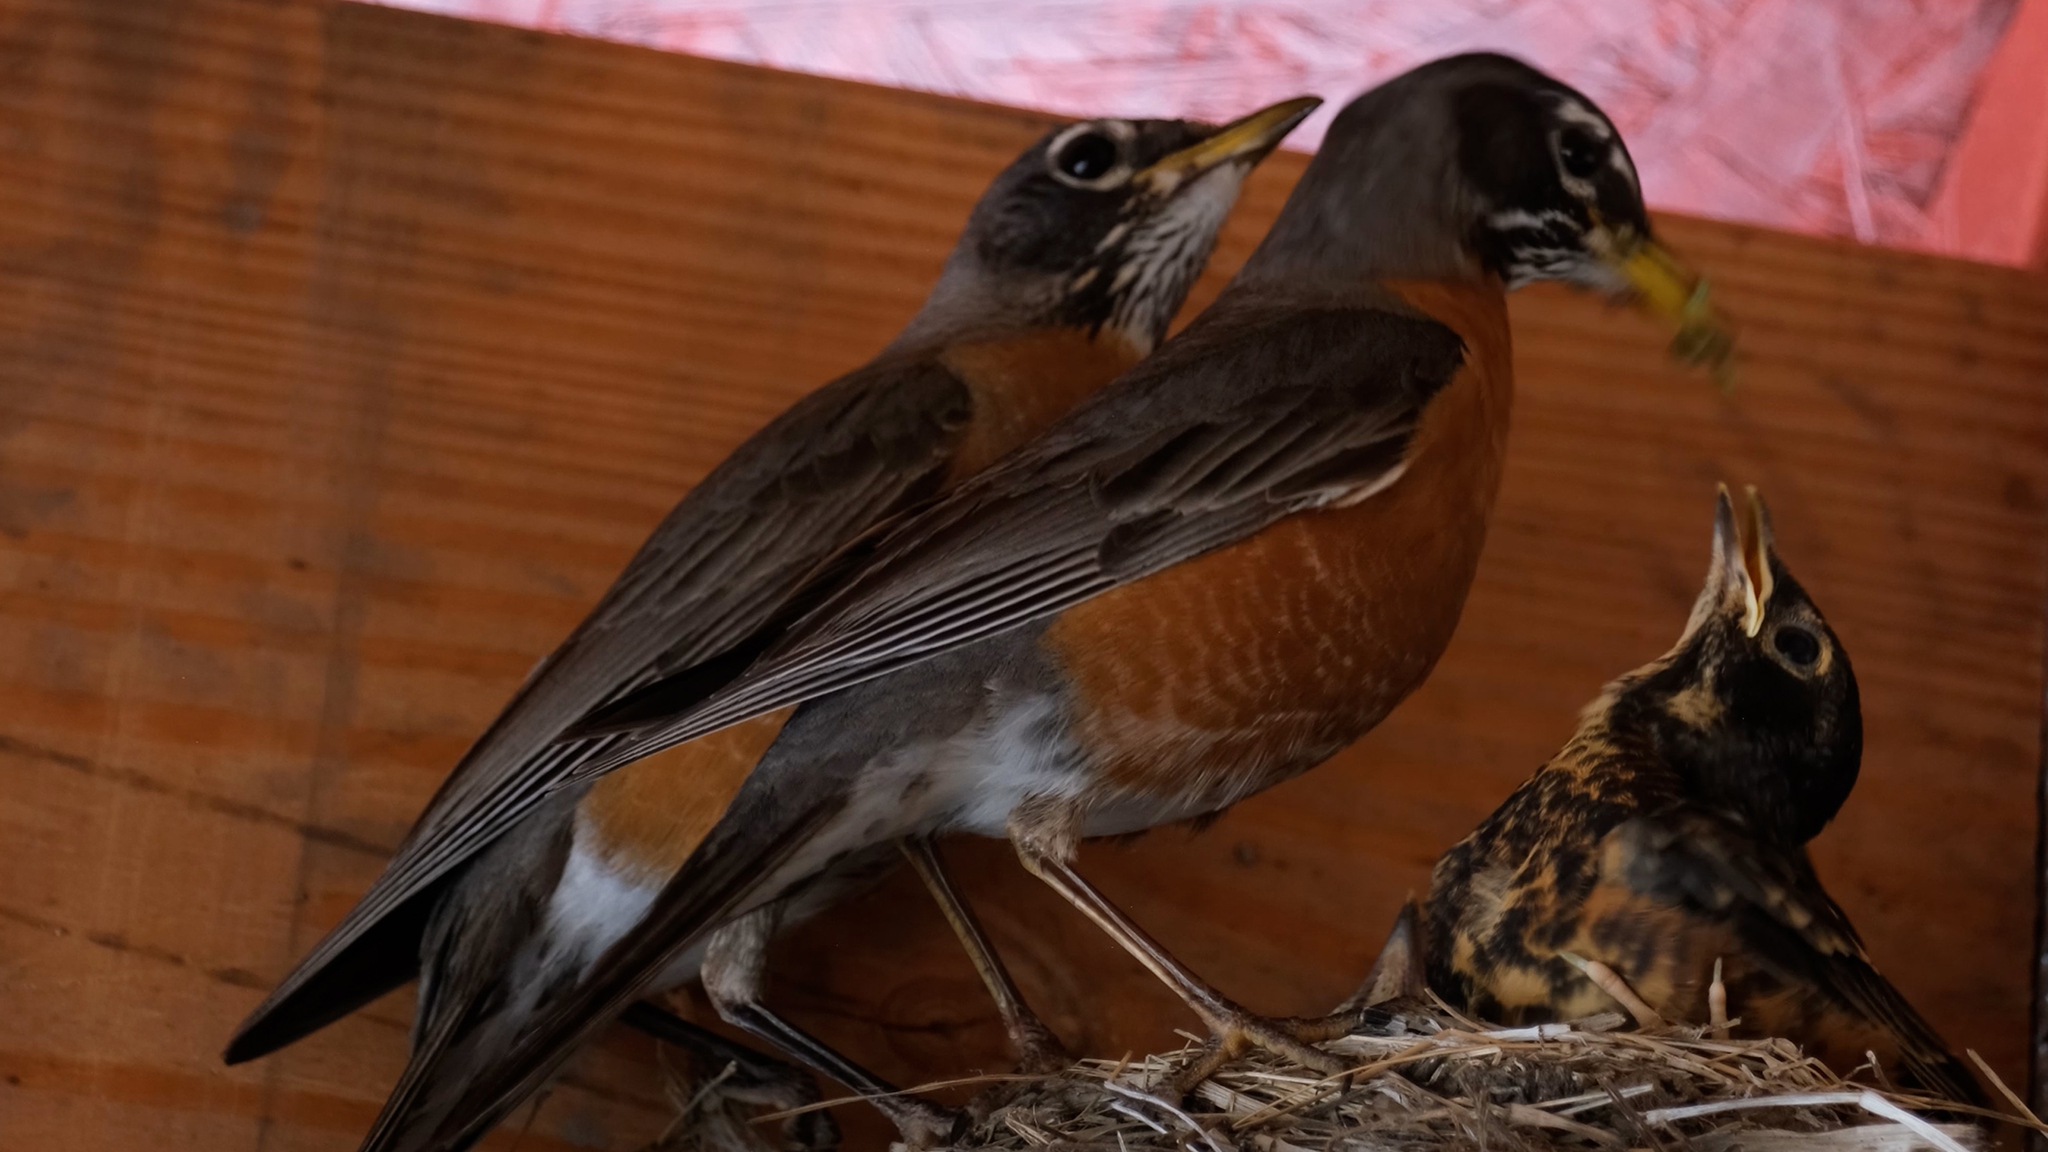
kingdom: Animalia
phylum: Chordata
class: Aves
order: Passeriformes
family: Turdidae
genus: Turdus
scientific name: Turdus migratorius
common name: American robin
